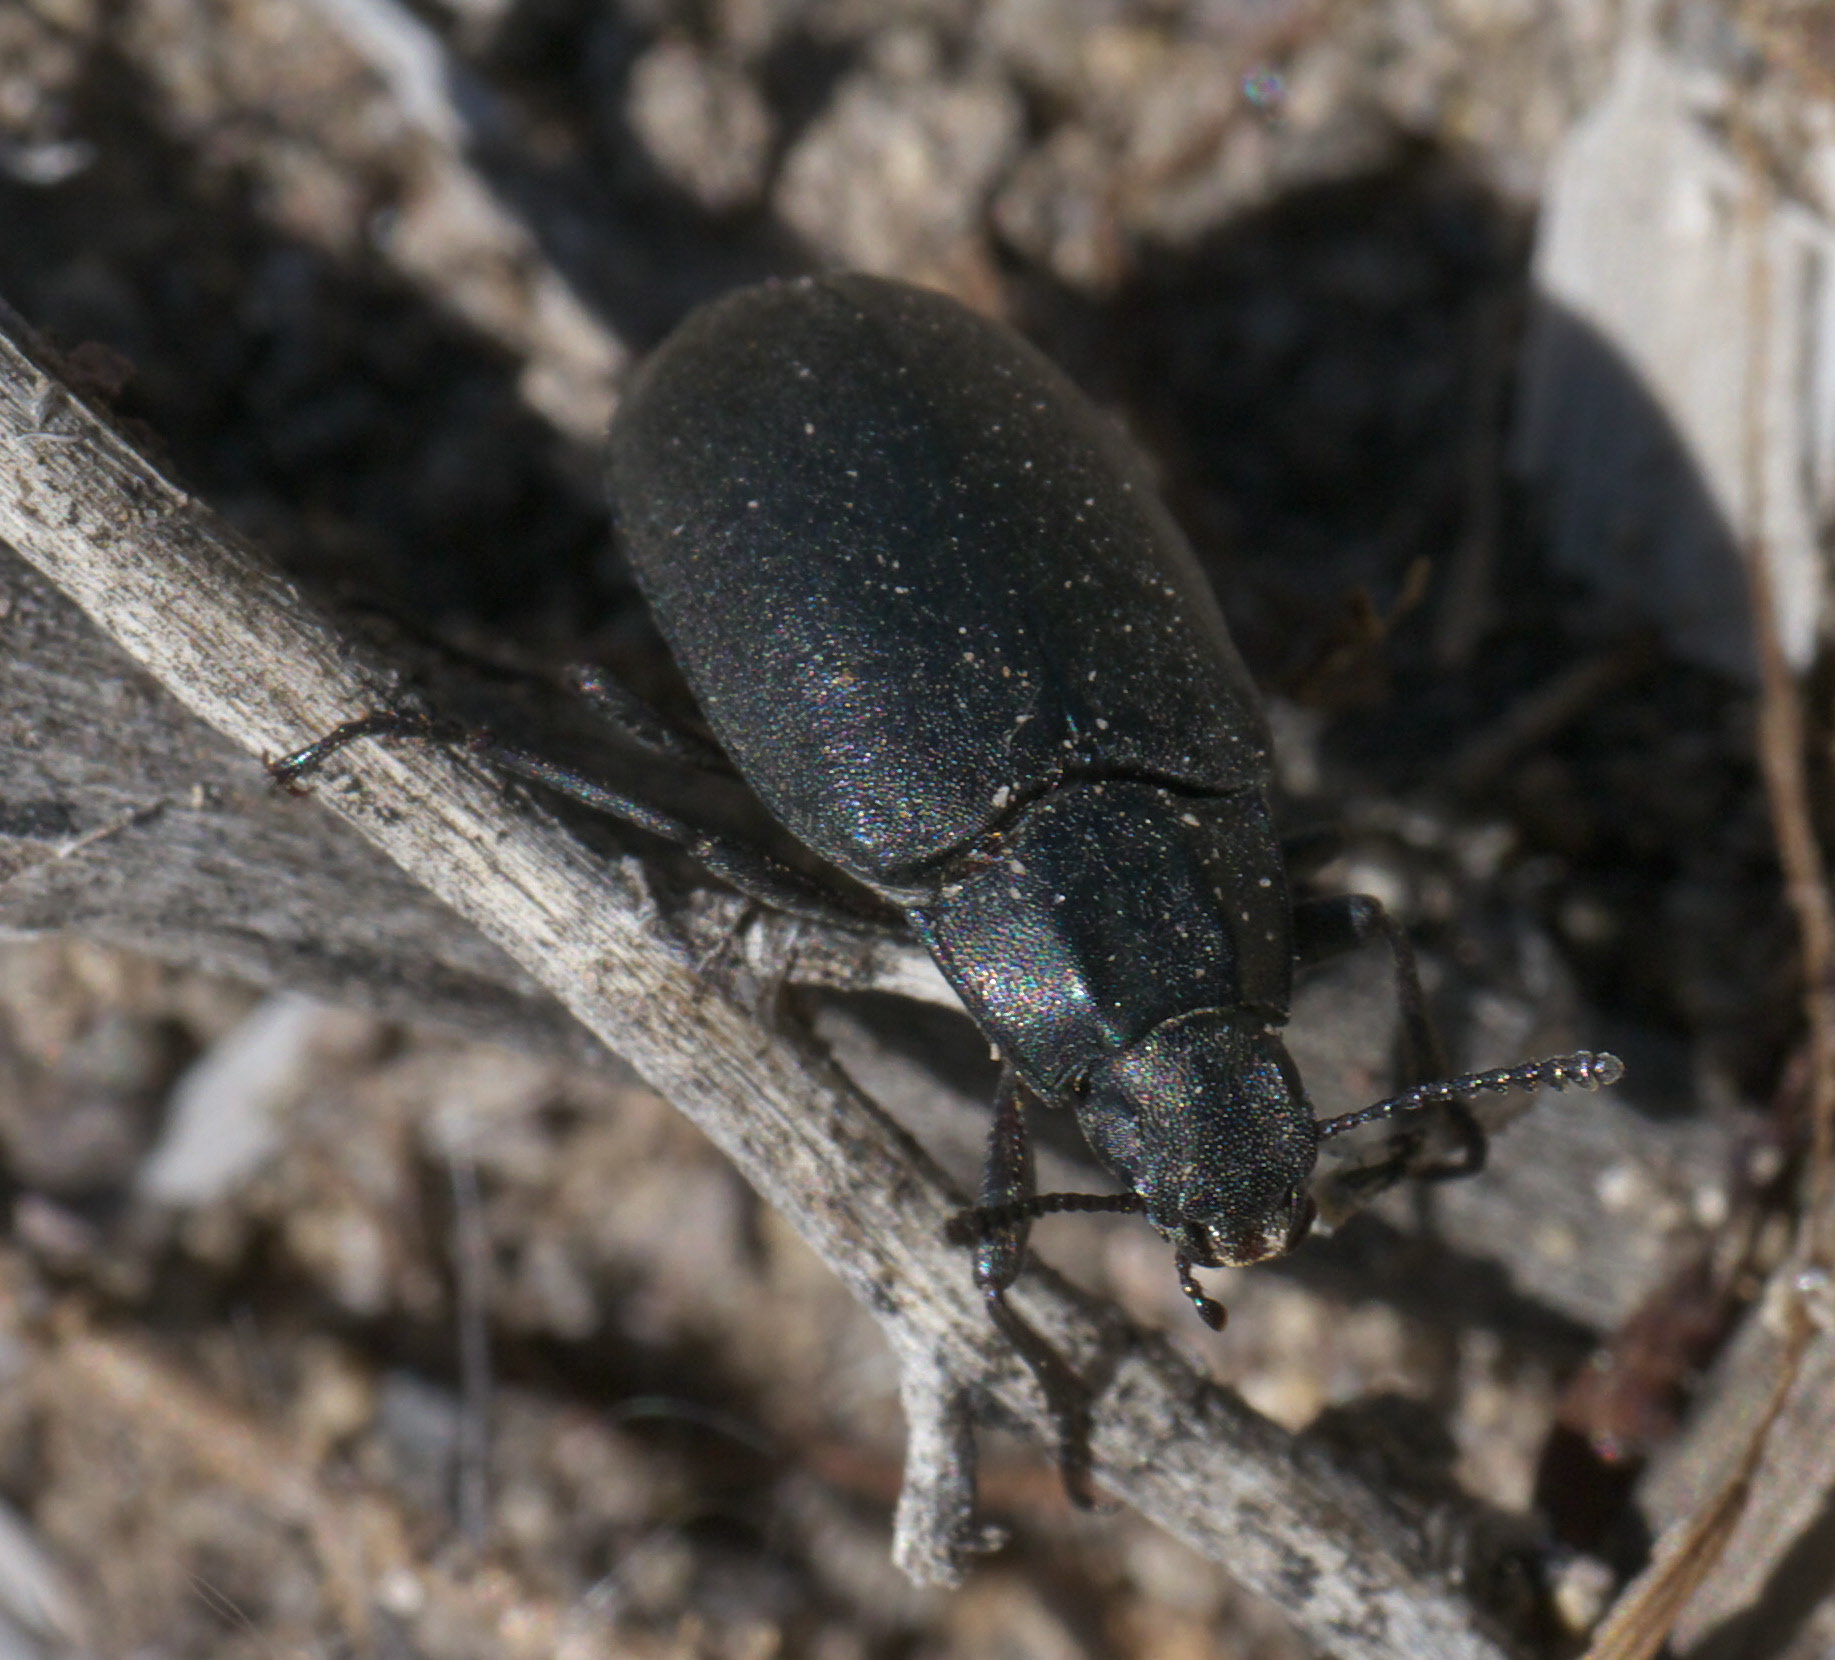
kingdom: Animalia
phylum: Arthropoda
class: Insecta
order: Coleoptera
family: Tenebrionidae
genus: Bothrotes
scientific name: Bothrotes canaliculatus
